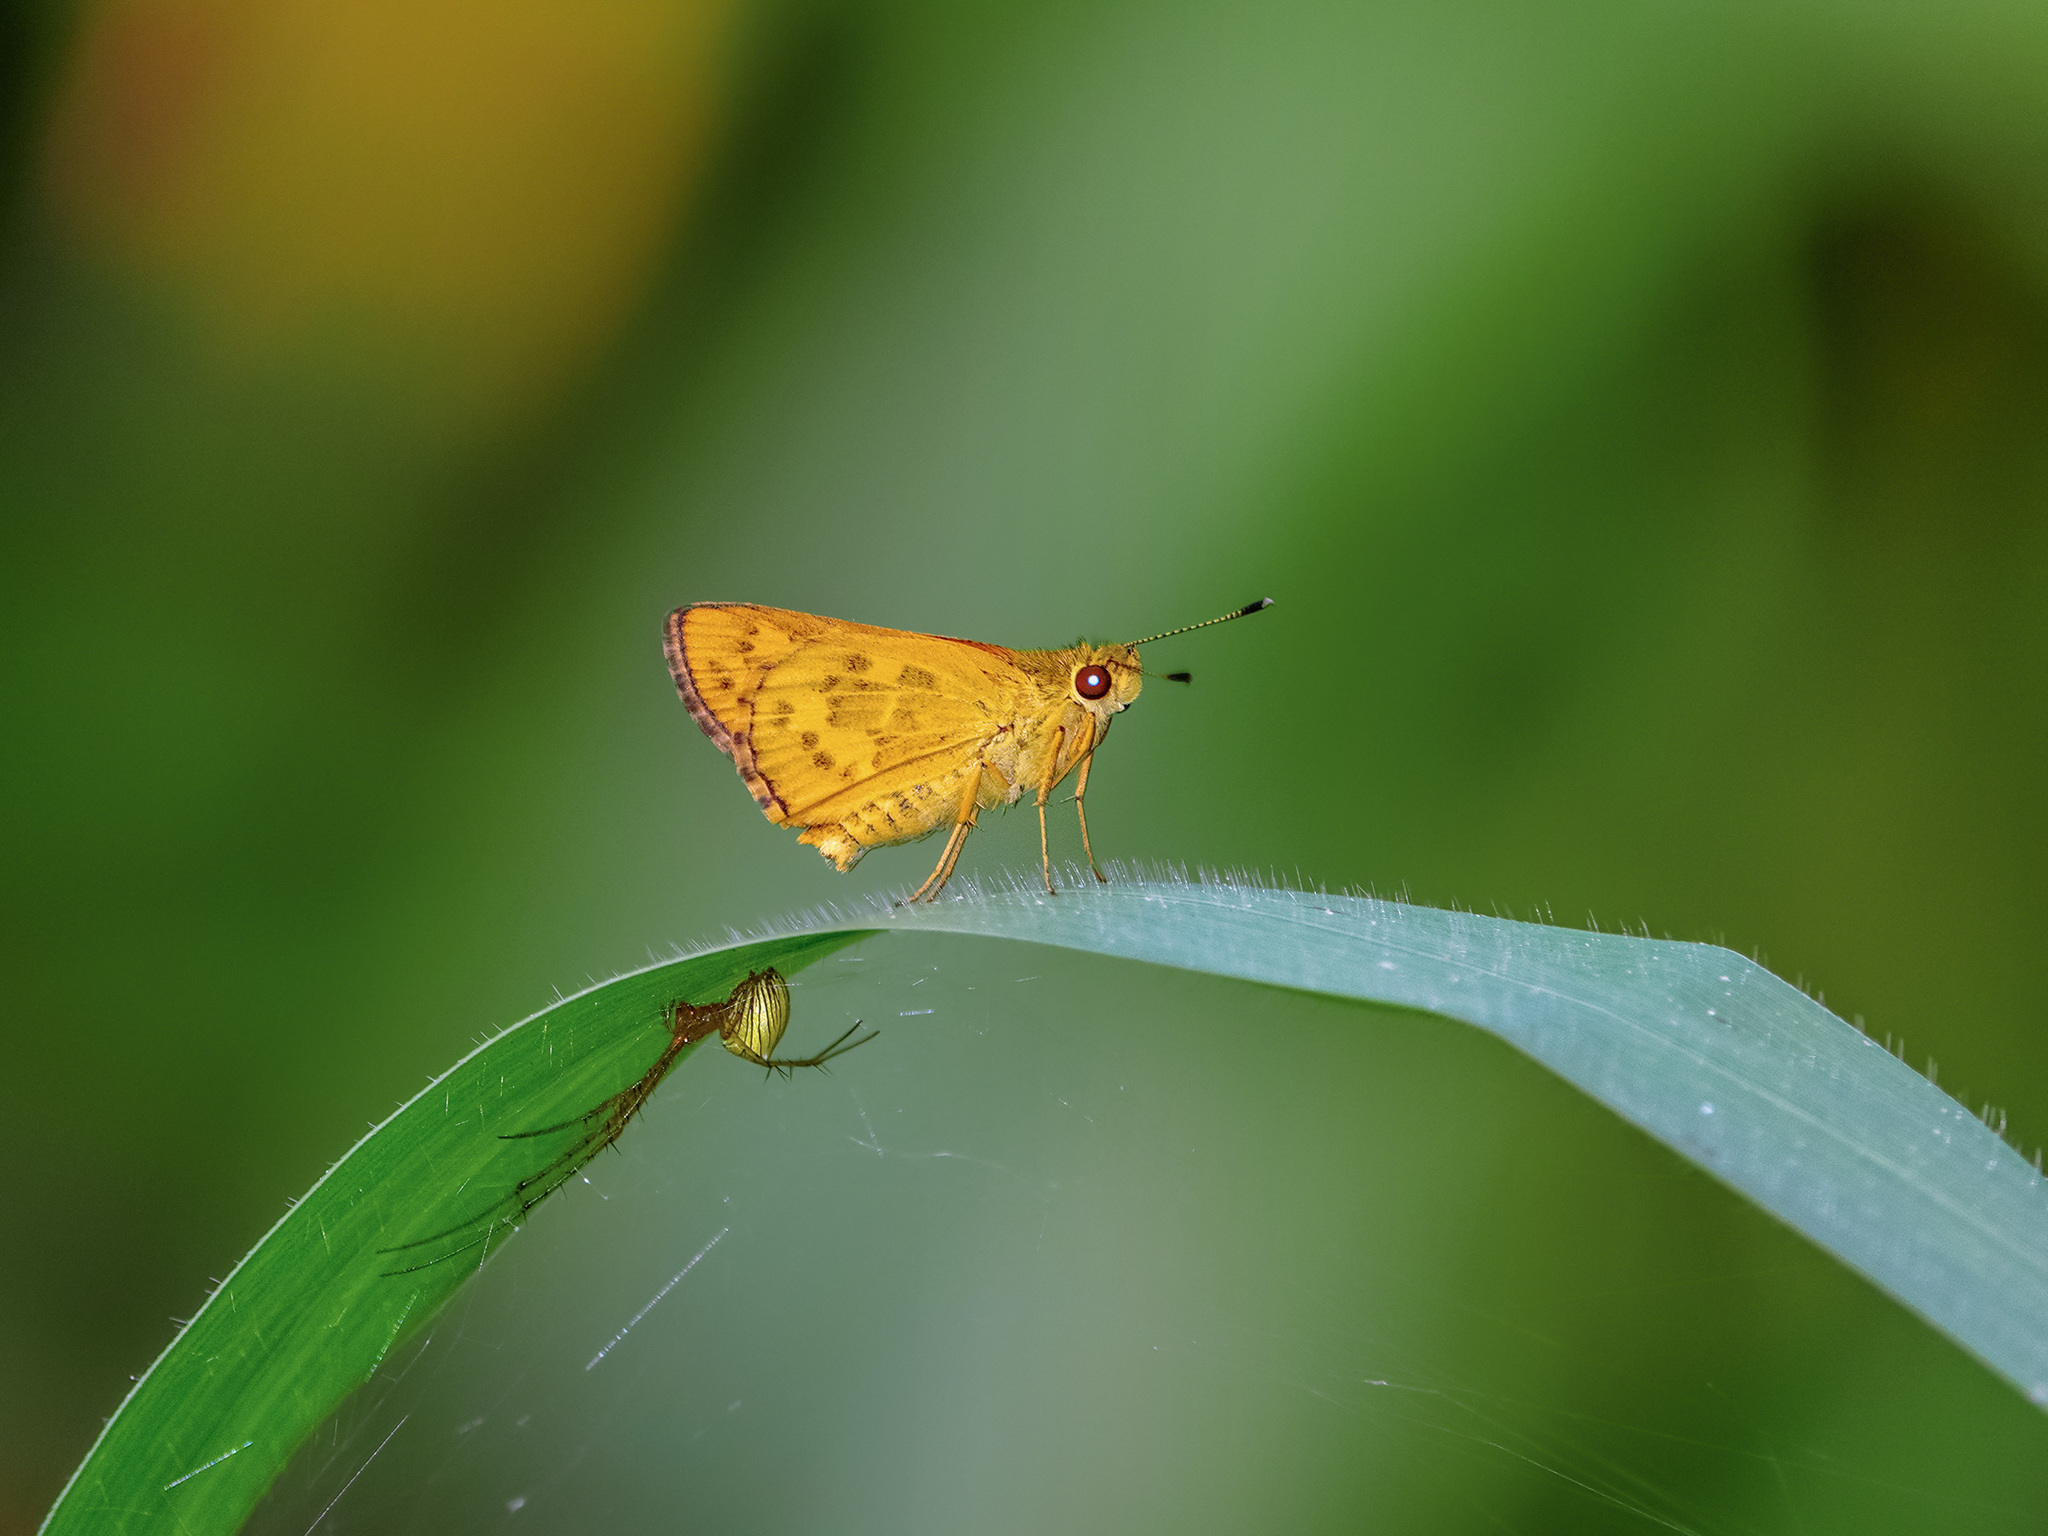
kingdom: Animalia
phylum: Arthropoda
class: Insecta
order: Lepidoptera
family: Hesperiidae
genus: Ampittia
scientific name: Ampittia dioscorides
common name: Common bush hopper
